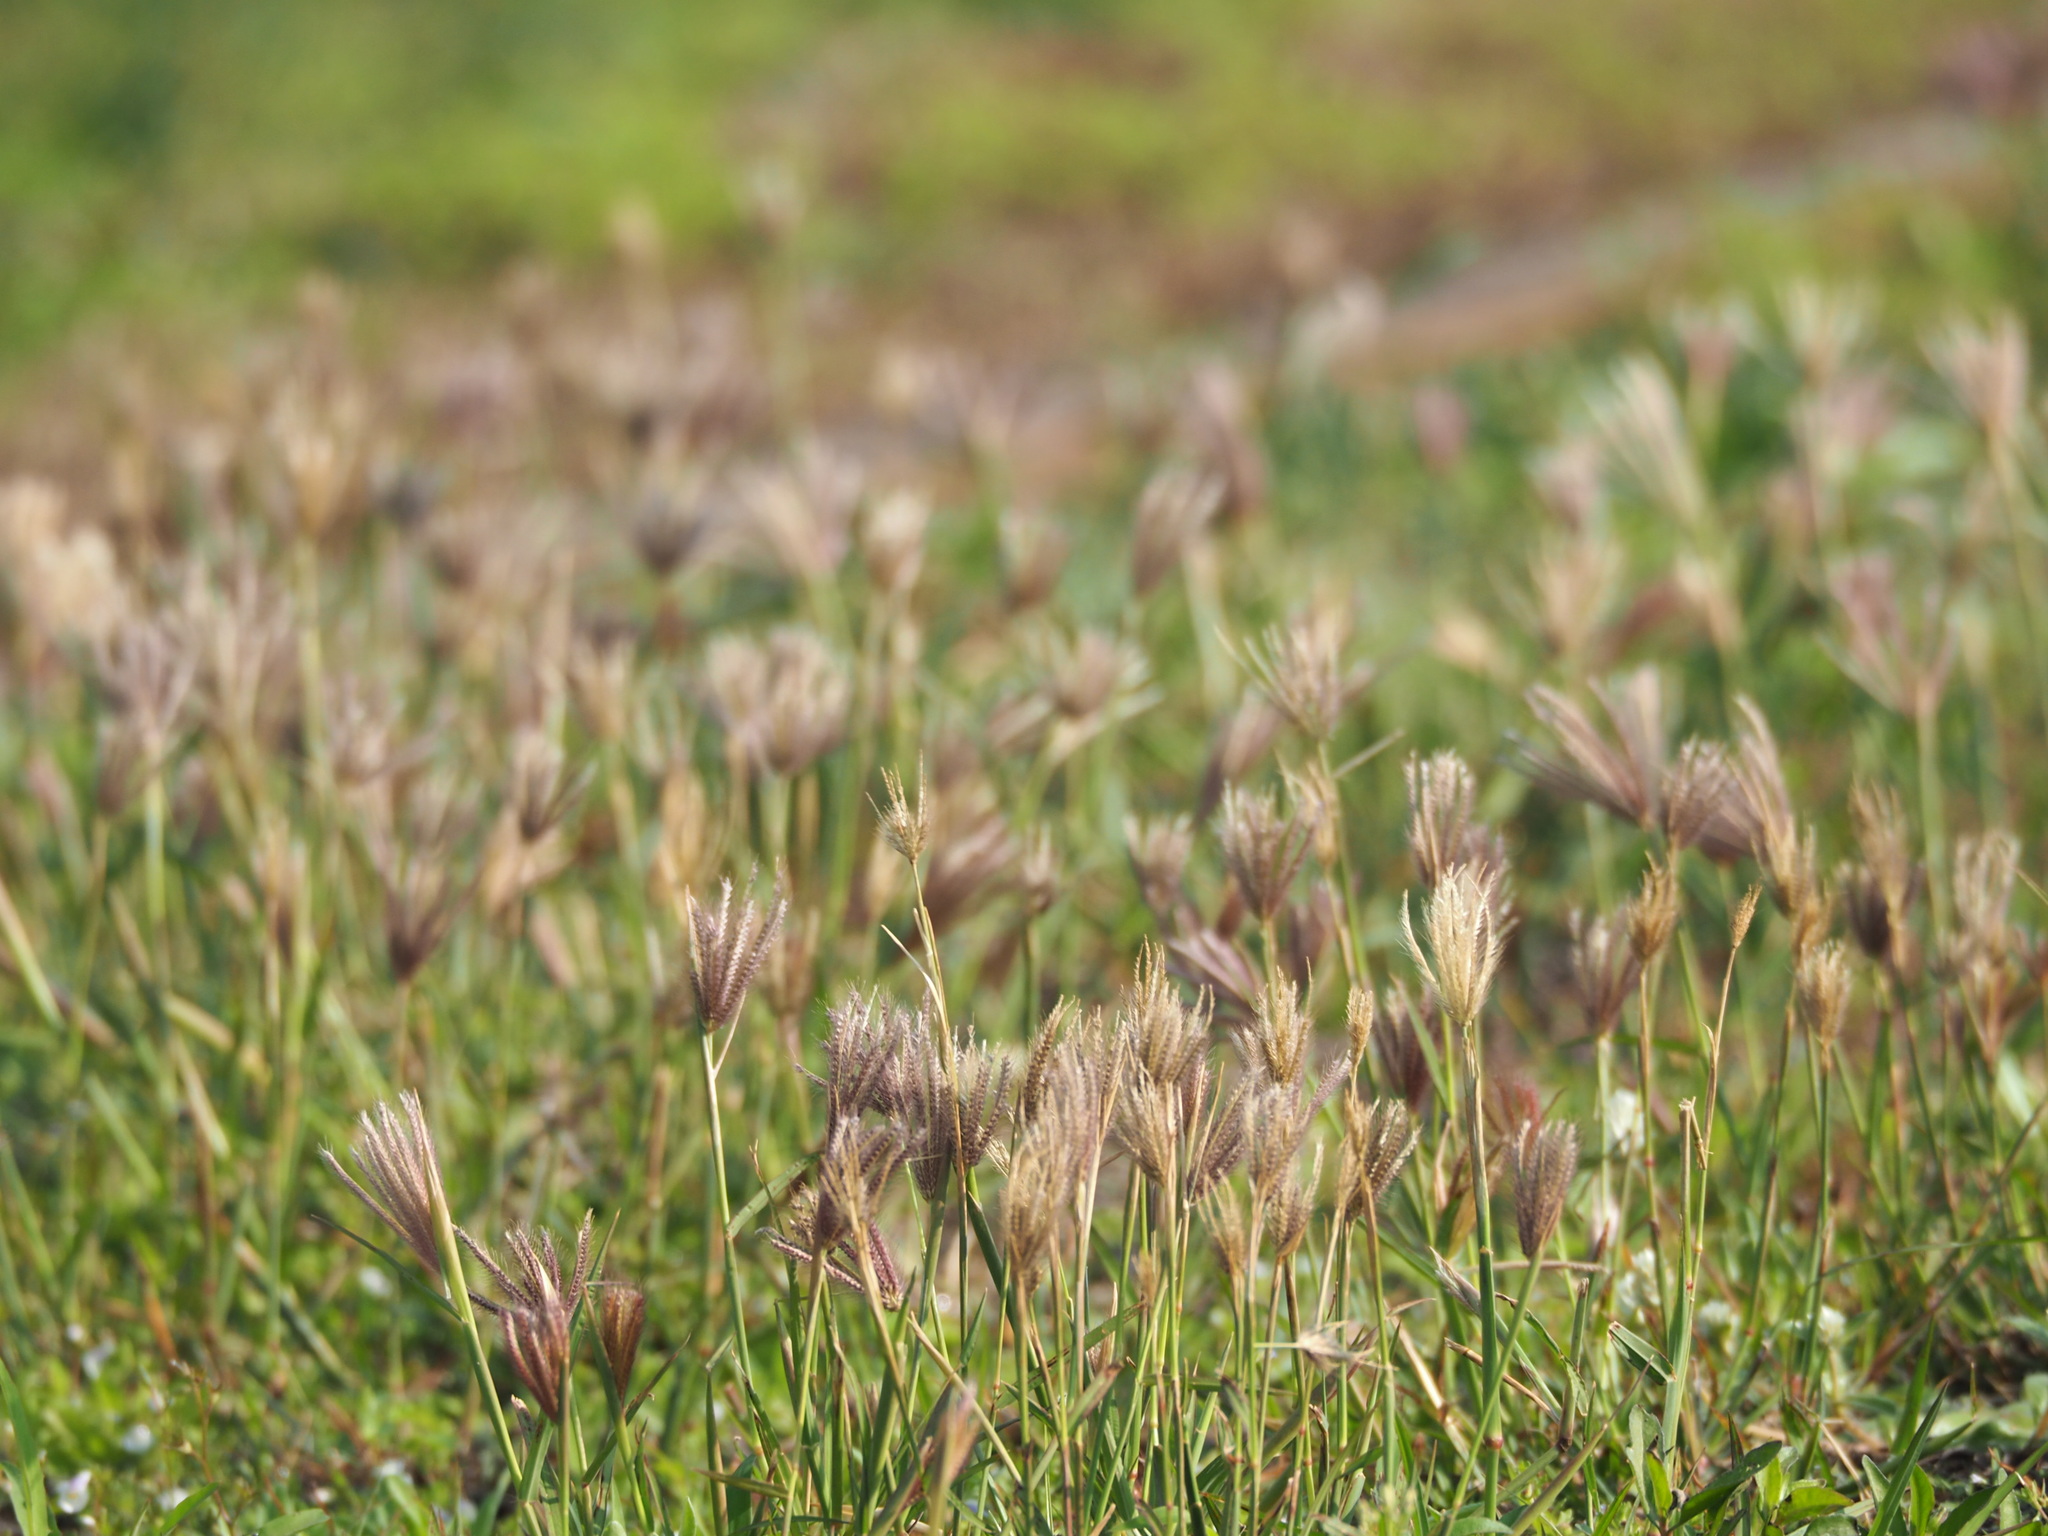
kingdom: Plantae
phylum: Tracheophyta
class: Liliopsida
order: Poales
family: Poaceae
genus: Chloris
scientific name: Chloris barbata
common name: Swollen fingergrass
